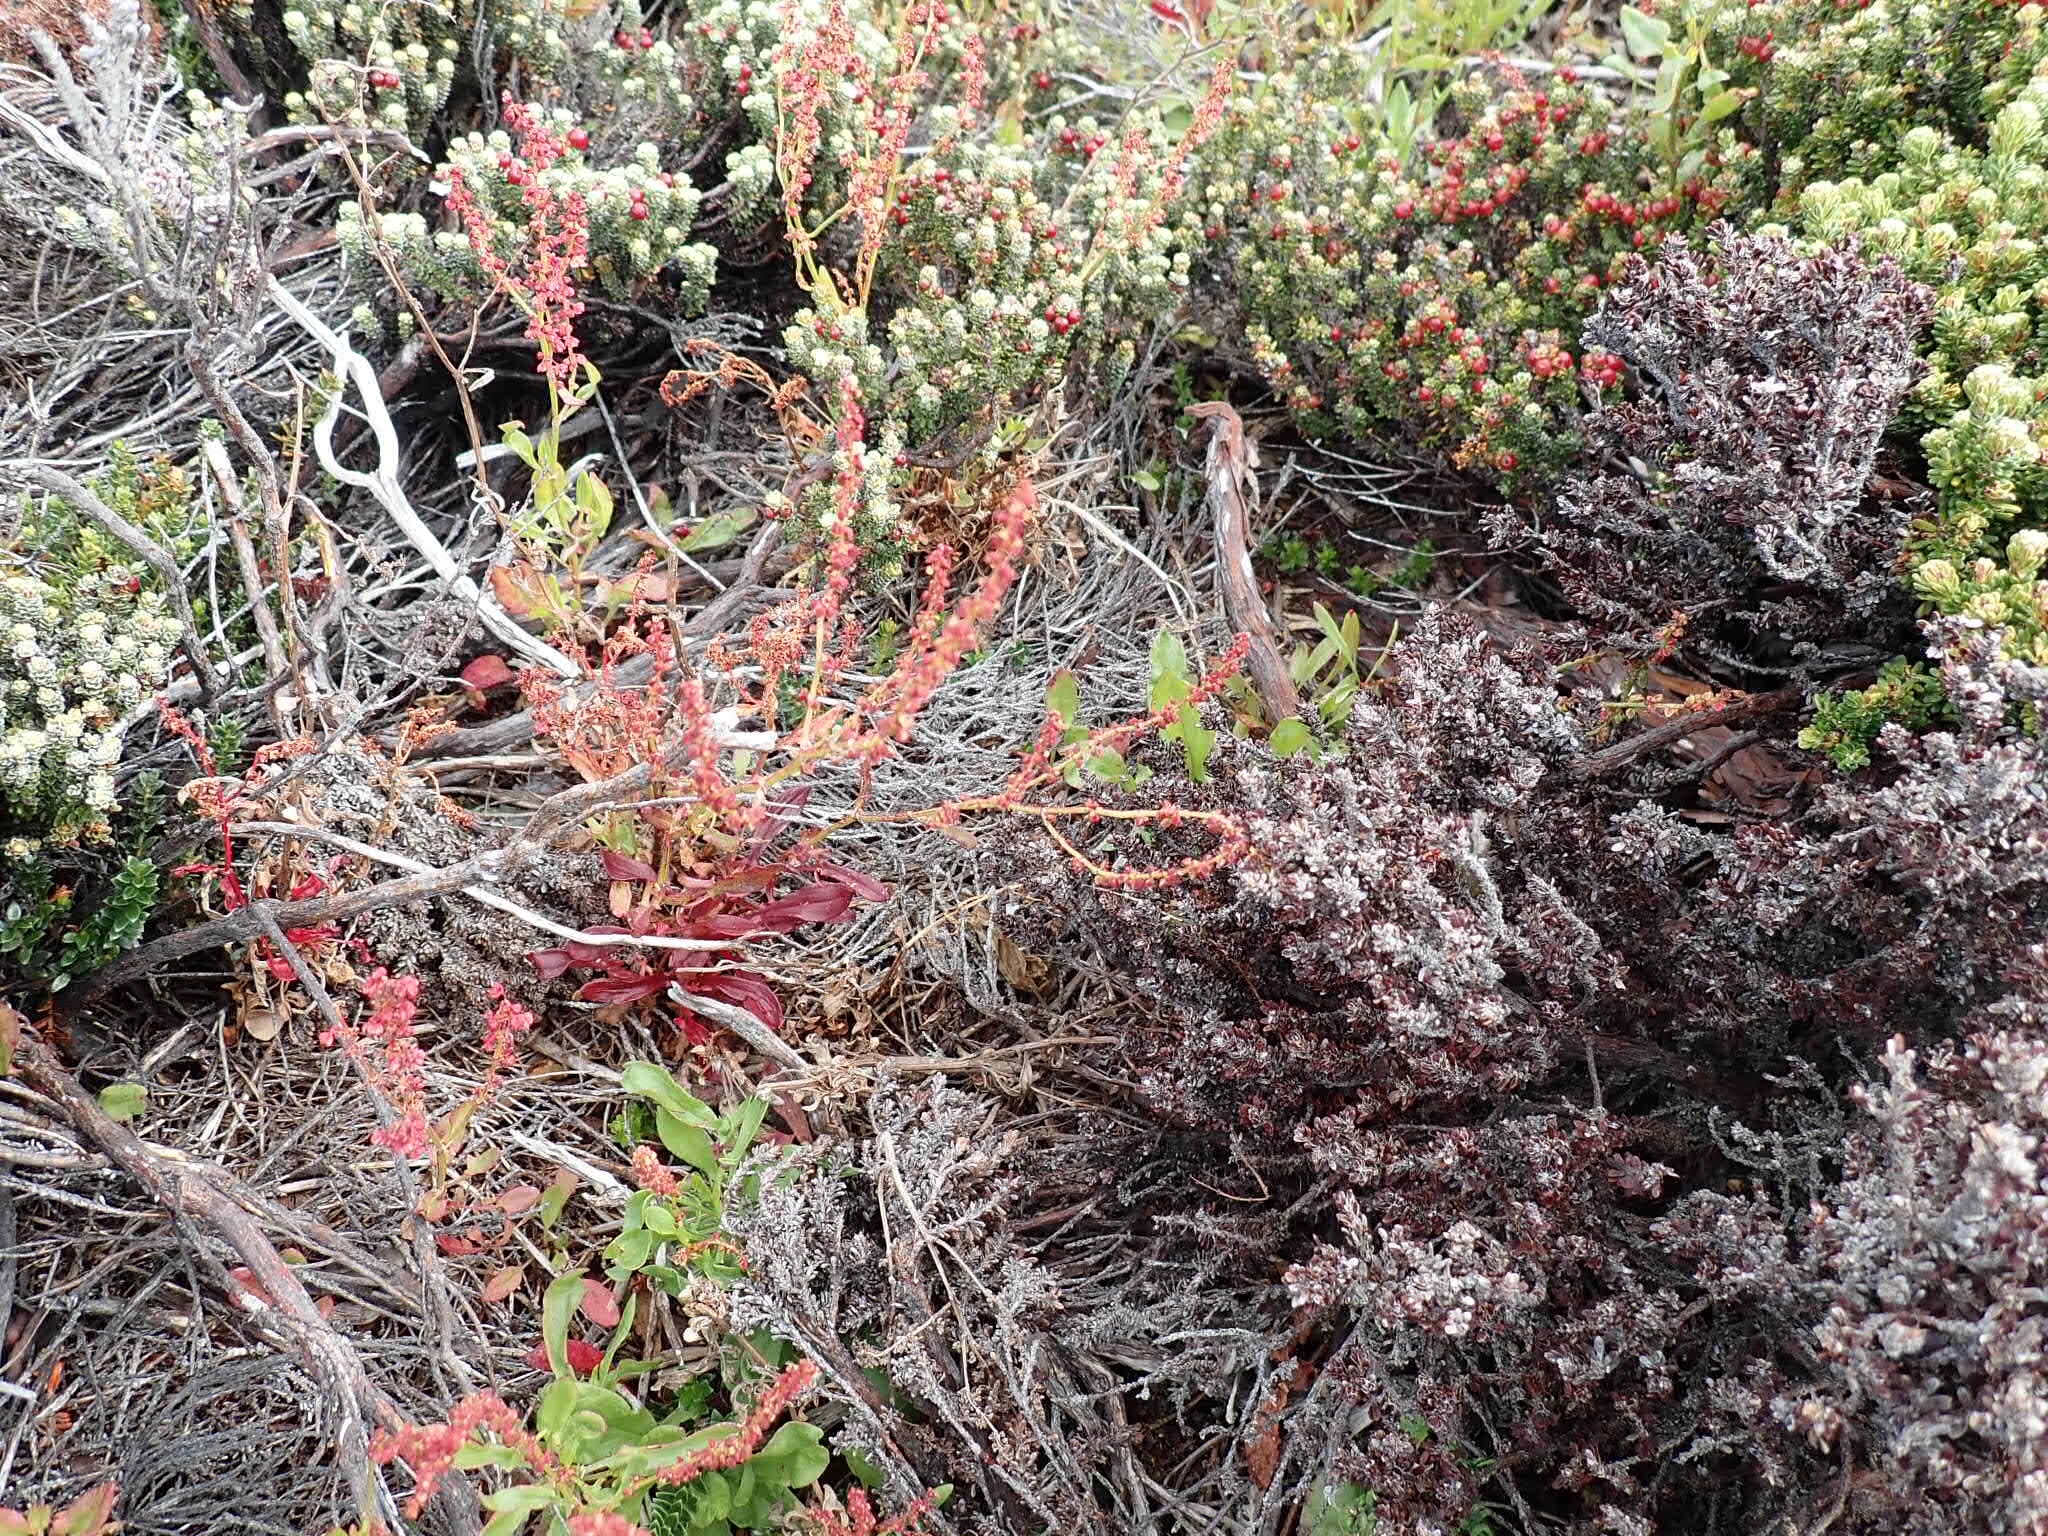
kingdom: Plantae
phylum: Tracheophyta
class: Magnoliopsida
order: Caryophyllales
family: Polygonaceae
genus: Rumex
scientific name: Rumex acetosella
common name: Common sheep sorrel
